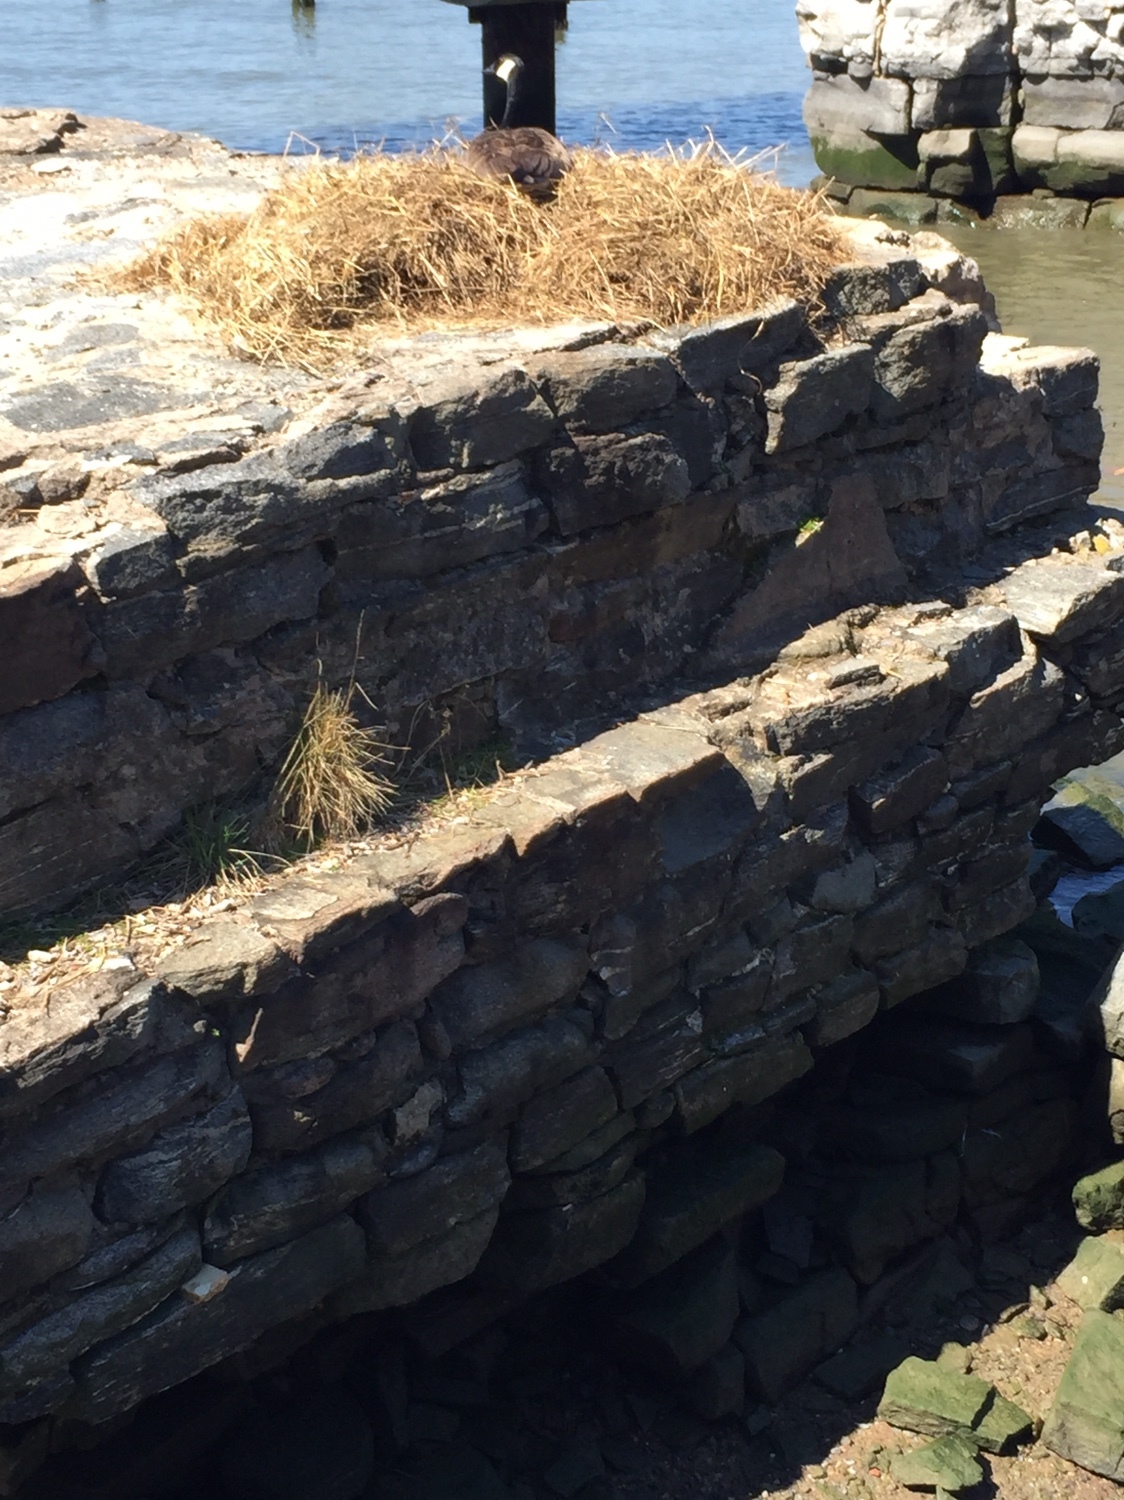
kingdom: Animalia
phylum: Chordata
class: Aves
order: Anseriformes
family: Anatidae
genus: Branta
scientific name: Branta canadensis
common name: Canada goose
